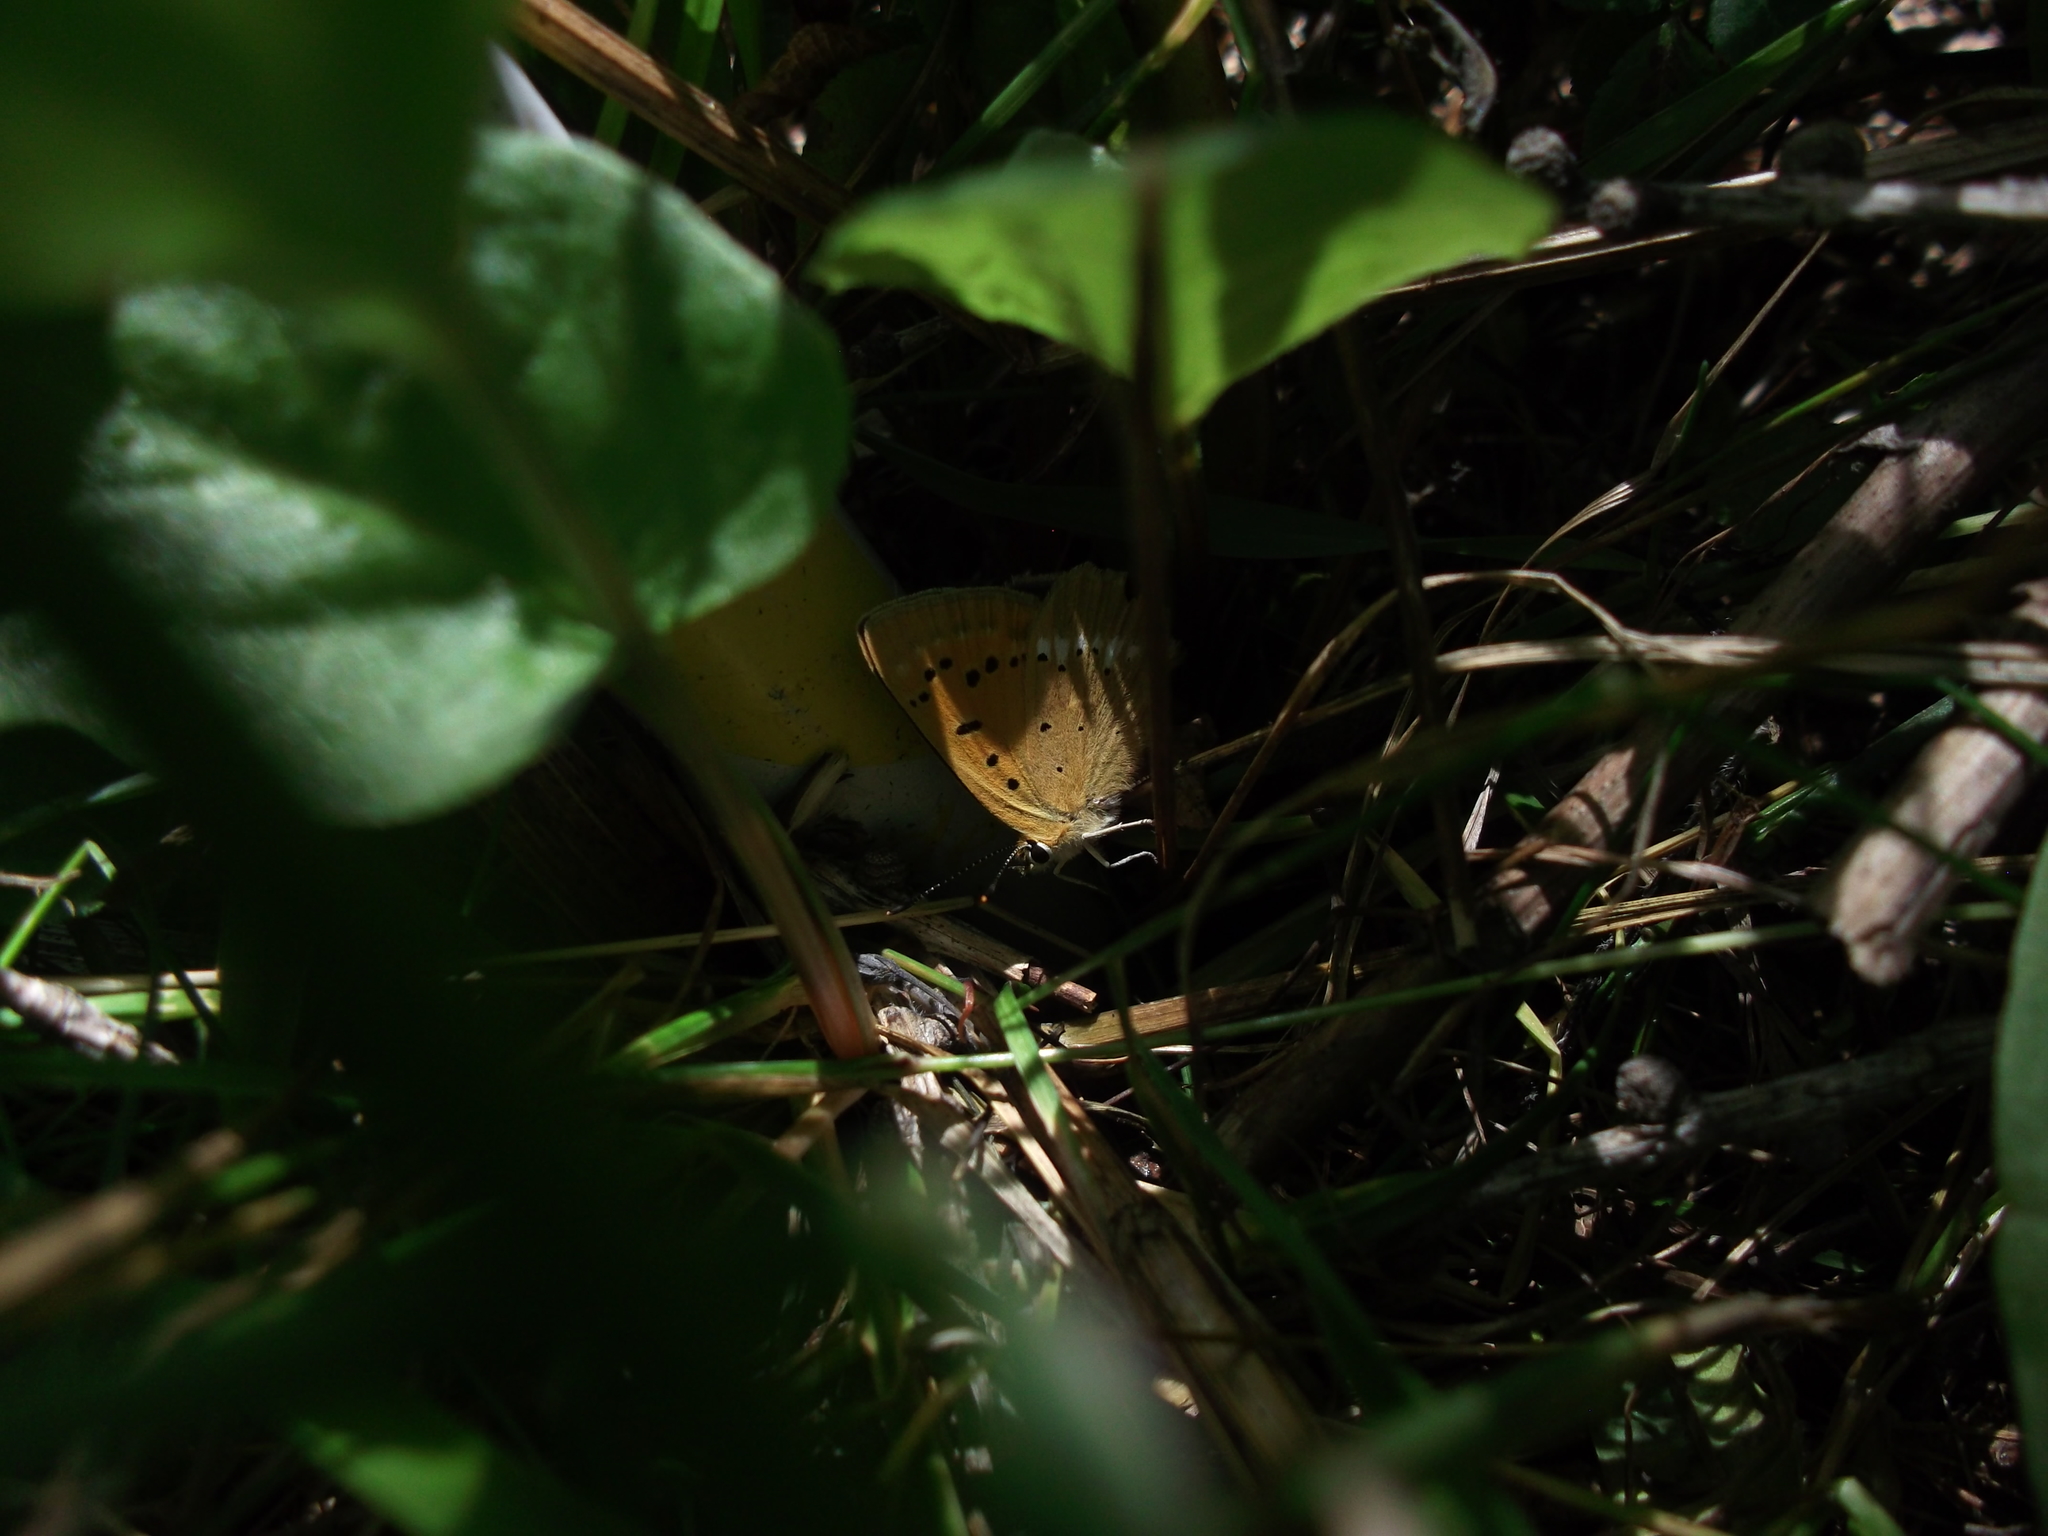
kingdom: Animalia
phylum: Arthropoda
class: Insecta
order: Lepidoptera
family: Lycaenidae
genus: Lycaena
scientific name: Lycaena virgaureae
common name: Scarce copper
